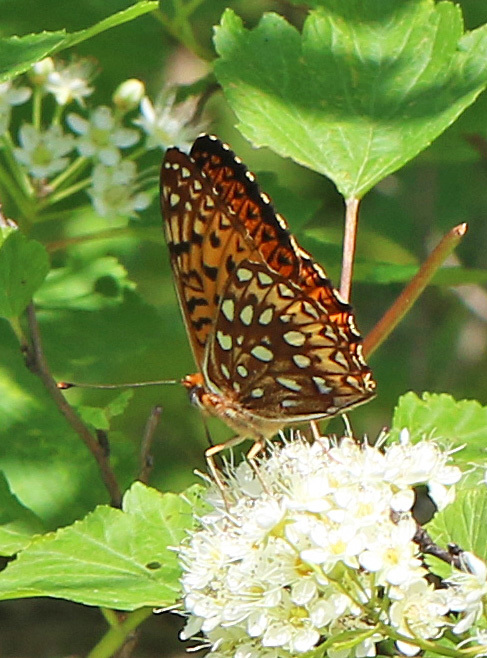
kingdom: Animalia
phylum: Arthropoda
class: Insecta
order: Lepidoptera
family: Nymphalidae
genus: Speyeria
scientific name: Speyeria atlantis
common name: Atlantis fritillary
